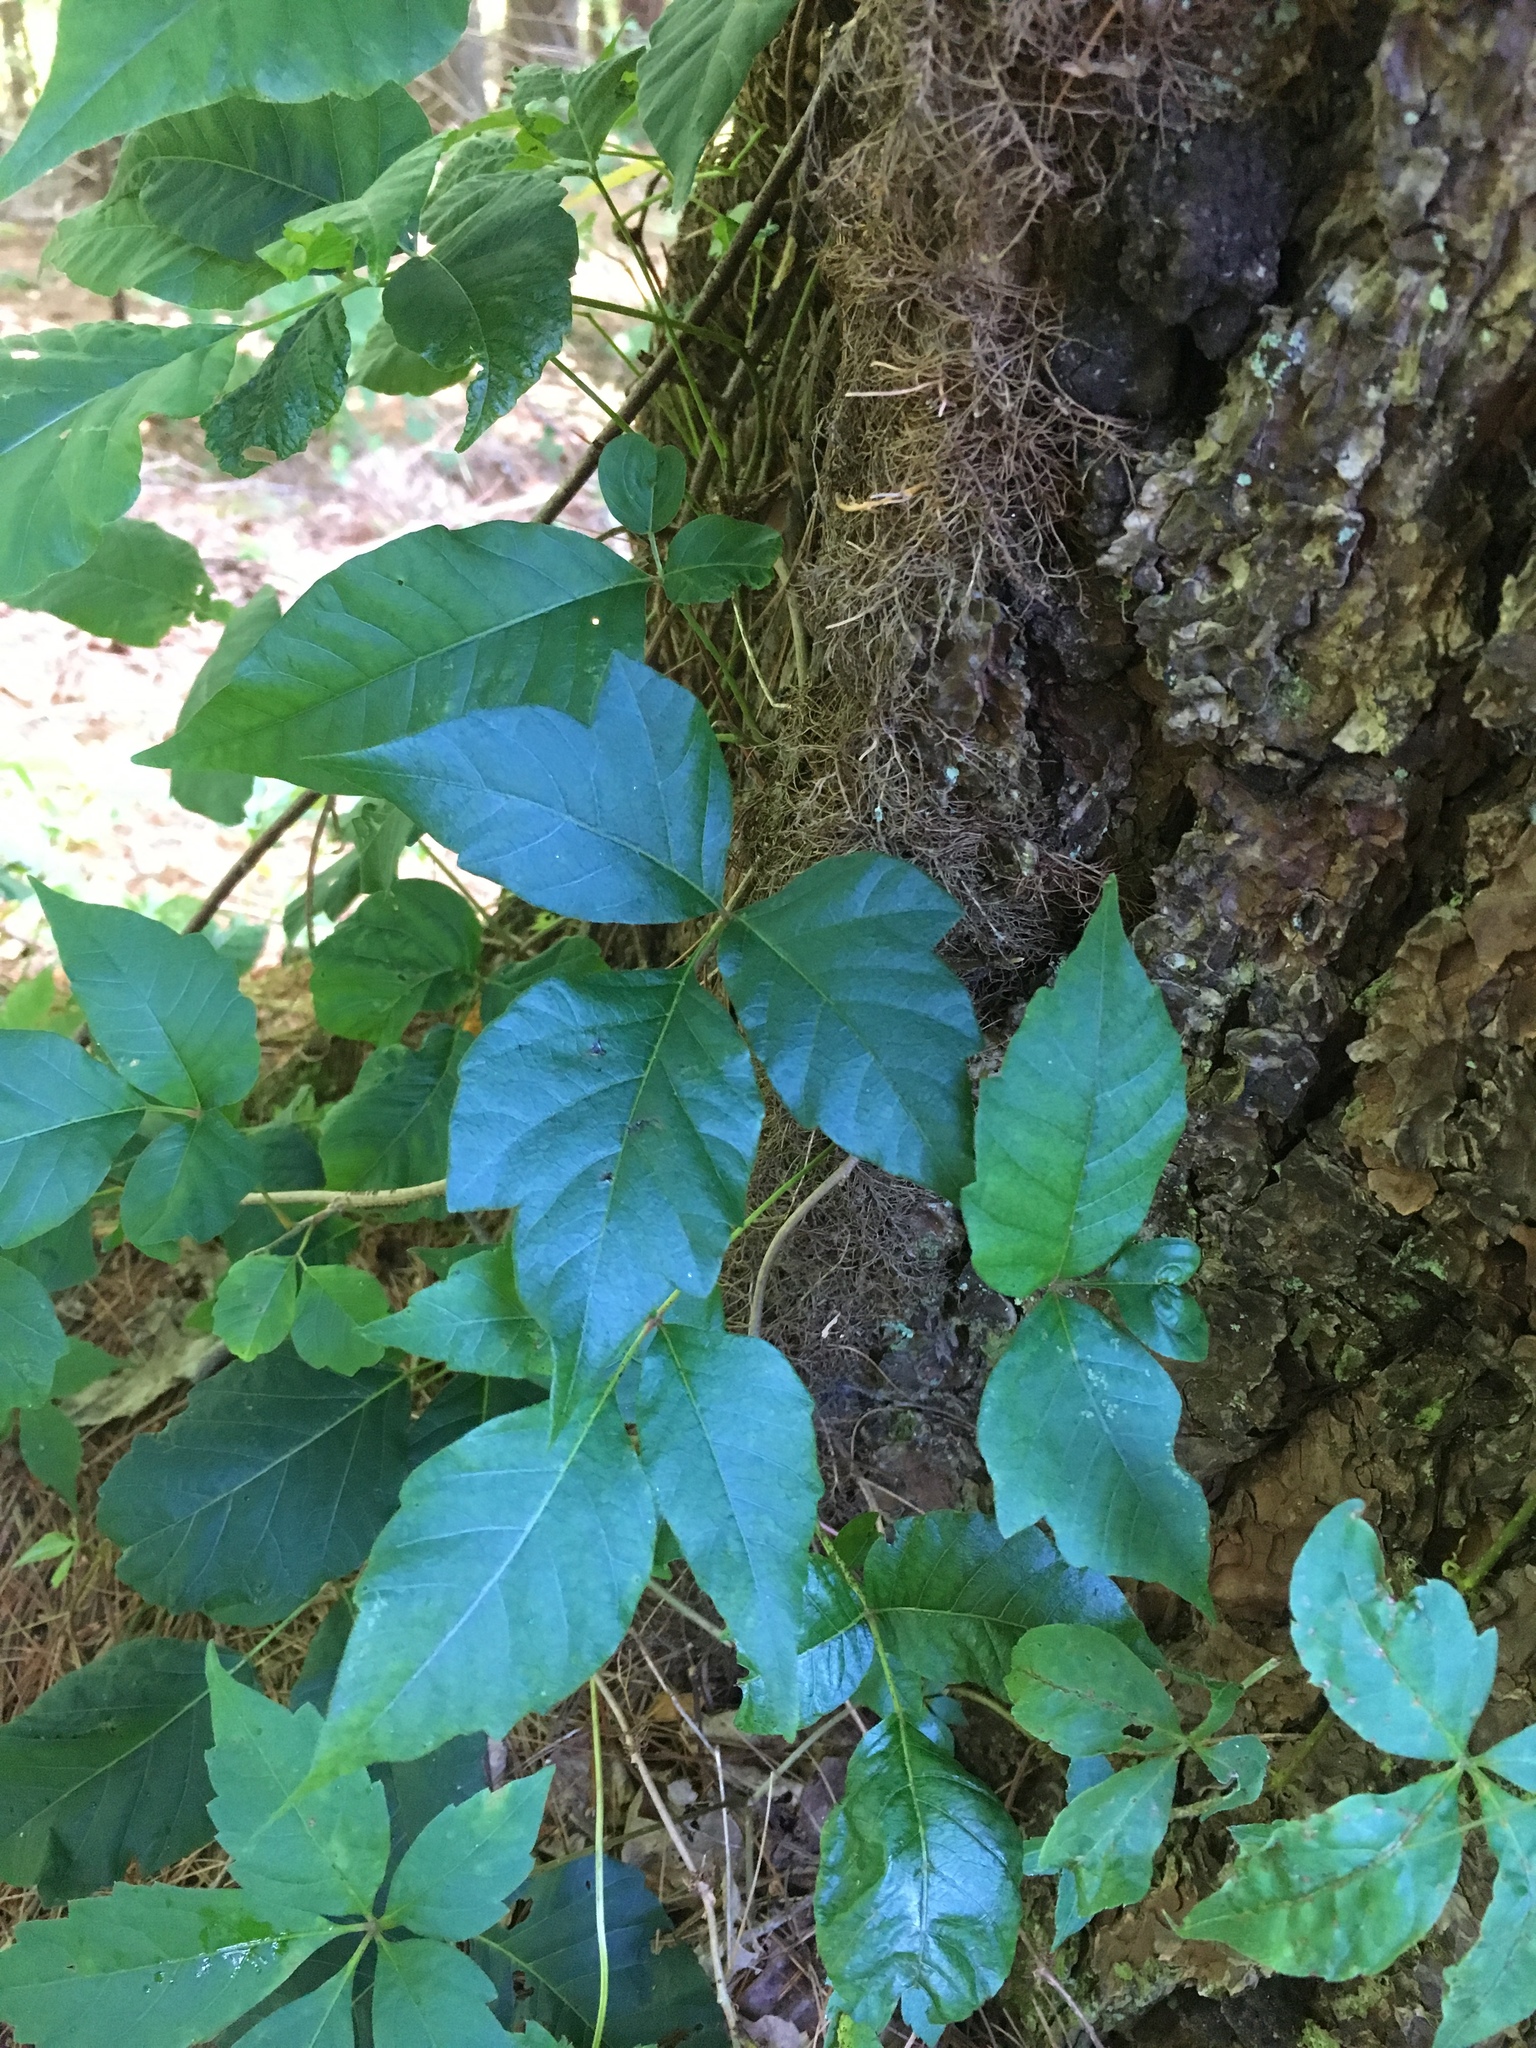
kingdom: Plantae
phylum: Tracheophyta
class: Magnoliopsida
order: Sapindales
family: Anacardiaceae
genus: Toxicodendron
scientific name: Toxicodendron radicans
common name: Poison ivy
